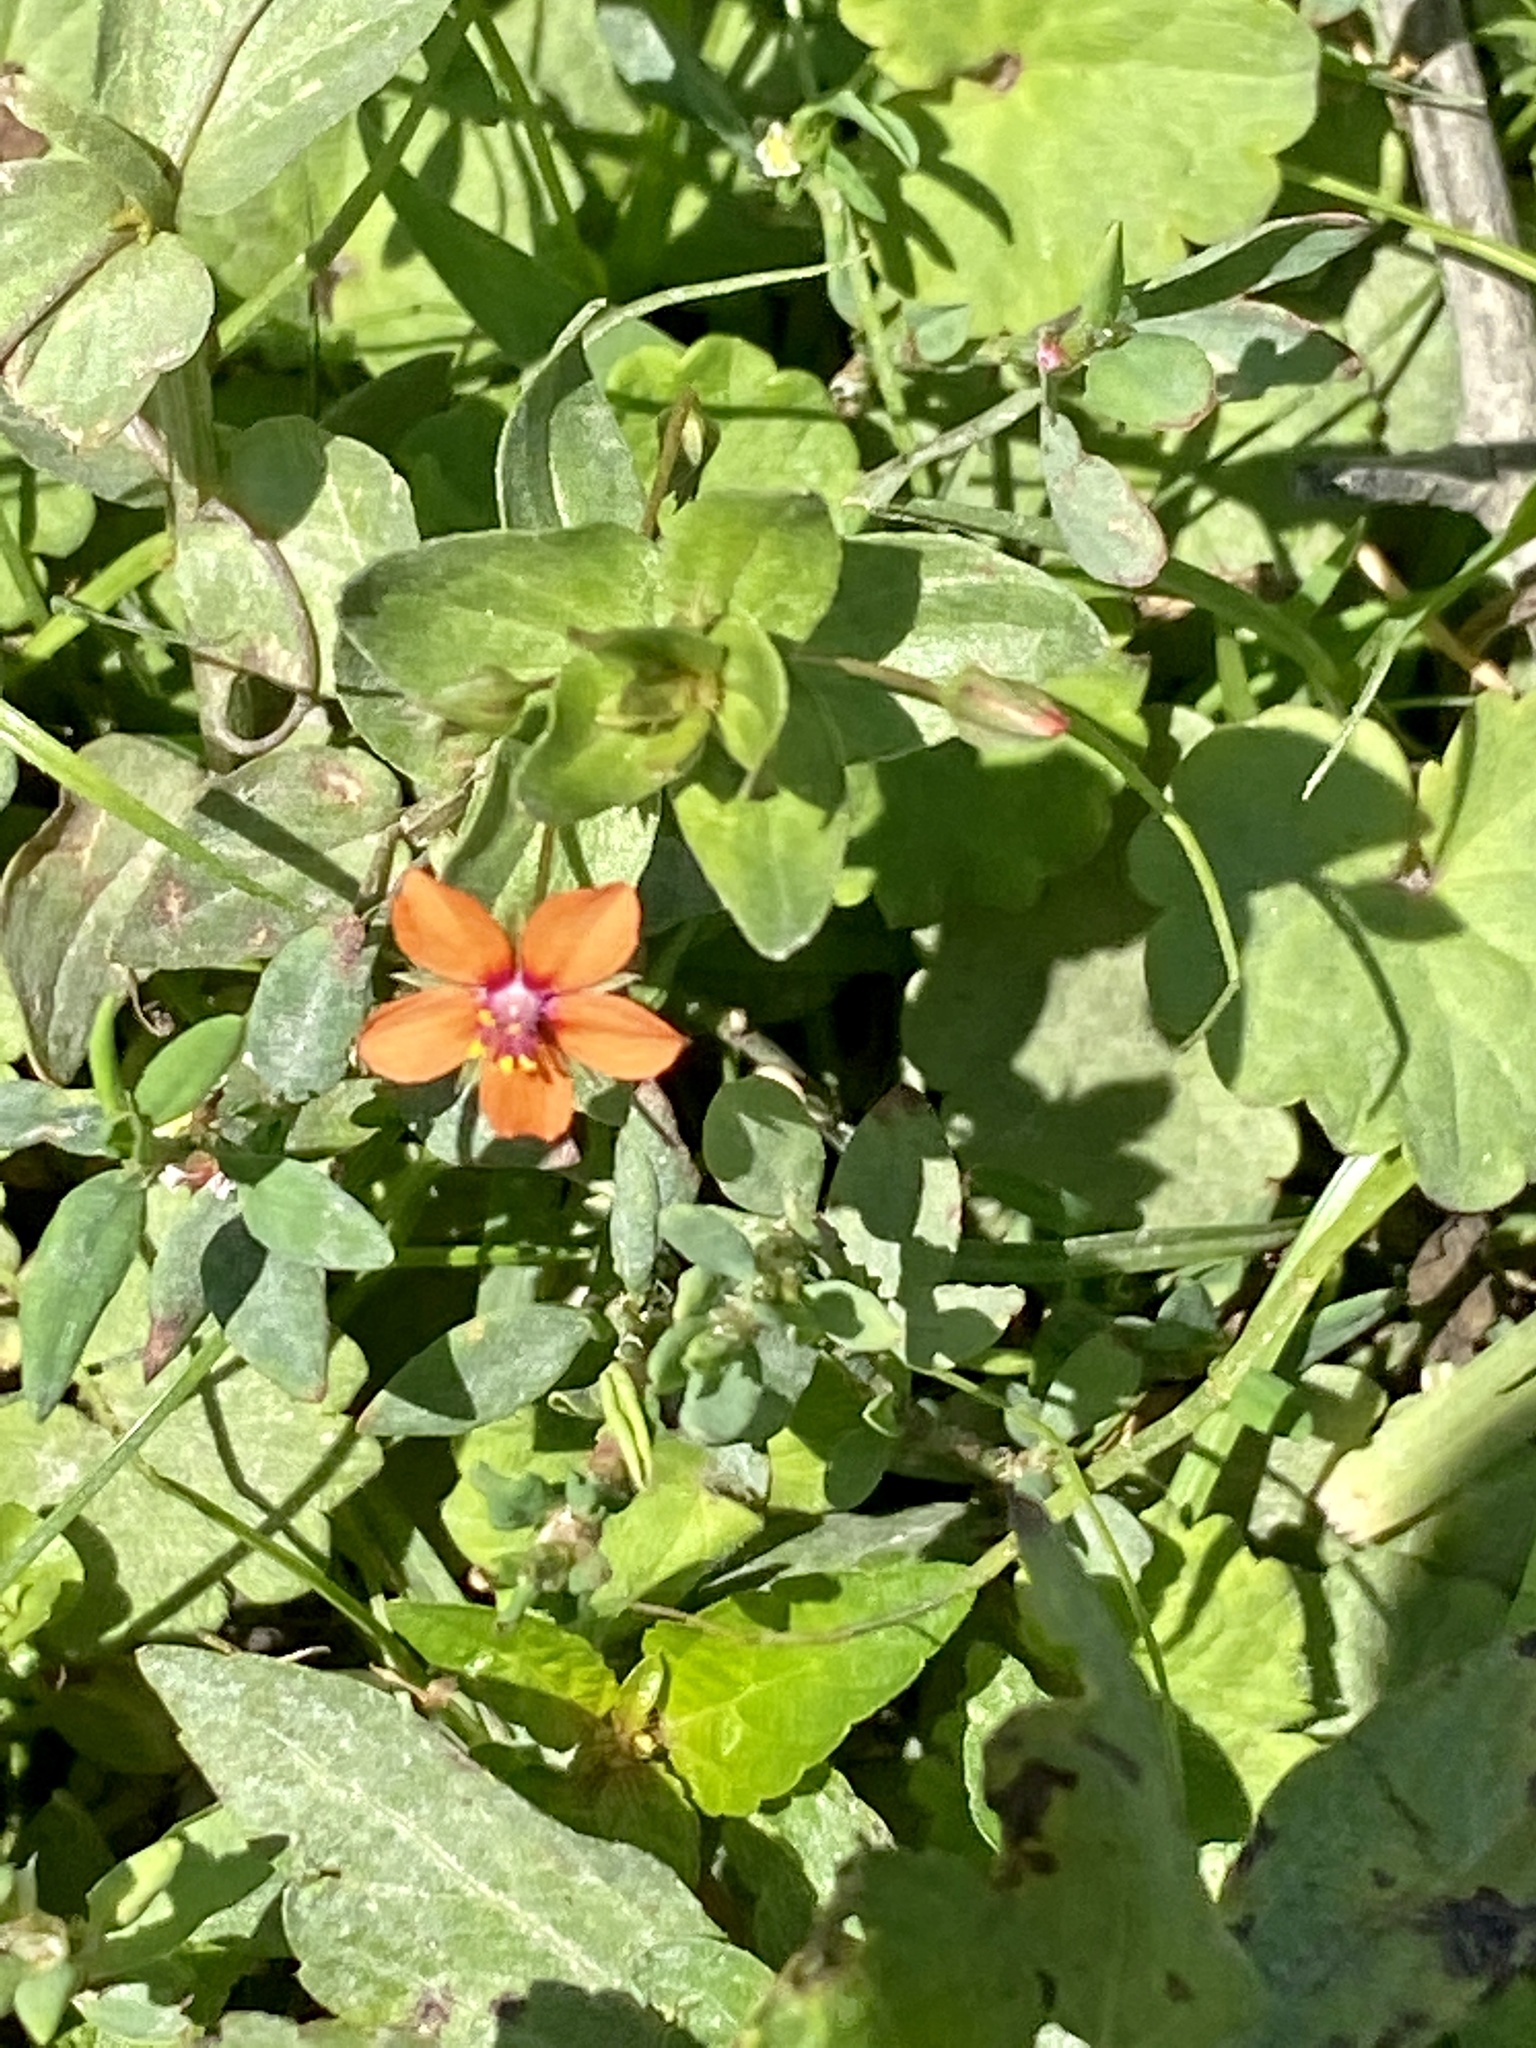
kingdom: Plantae
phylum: Tracheophyta
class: Magnoliopsida
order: Ericales
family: Primulaceae
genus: Lysimachia
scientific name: Lysimachia arvensis
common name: Scarlet pimpernel
